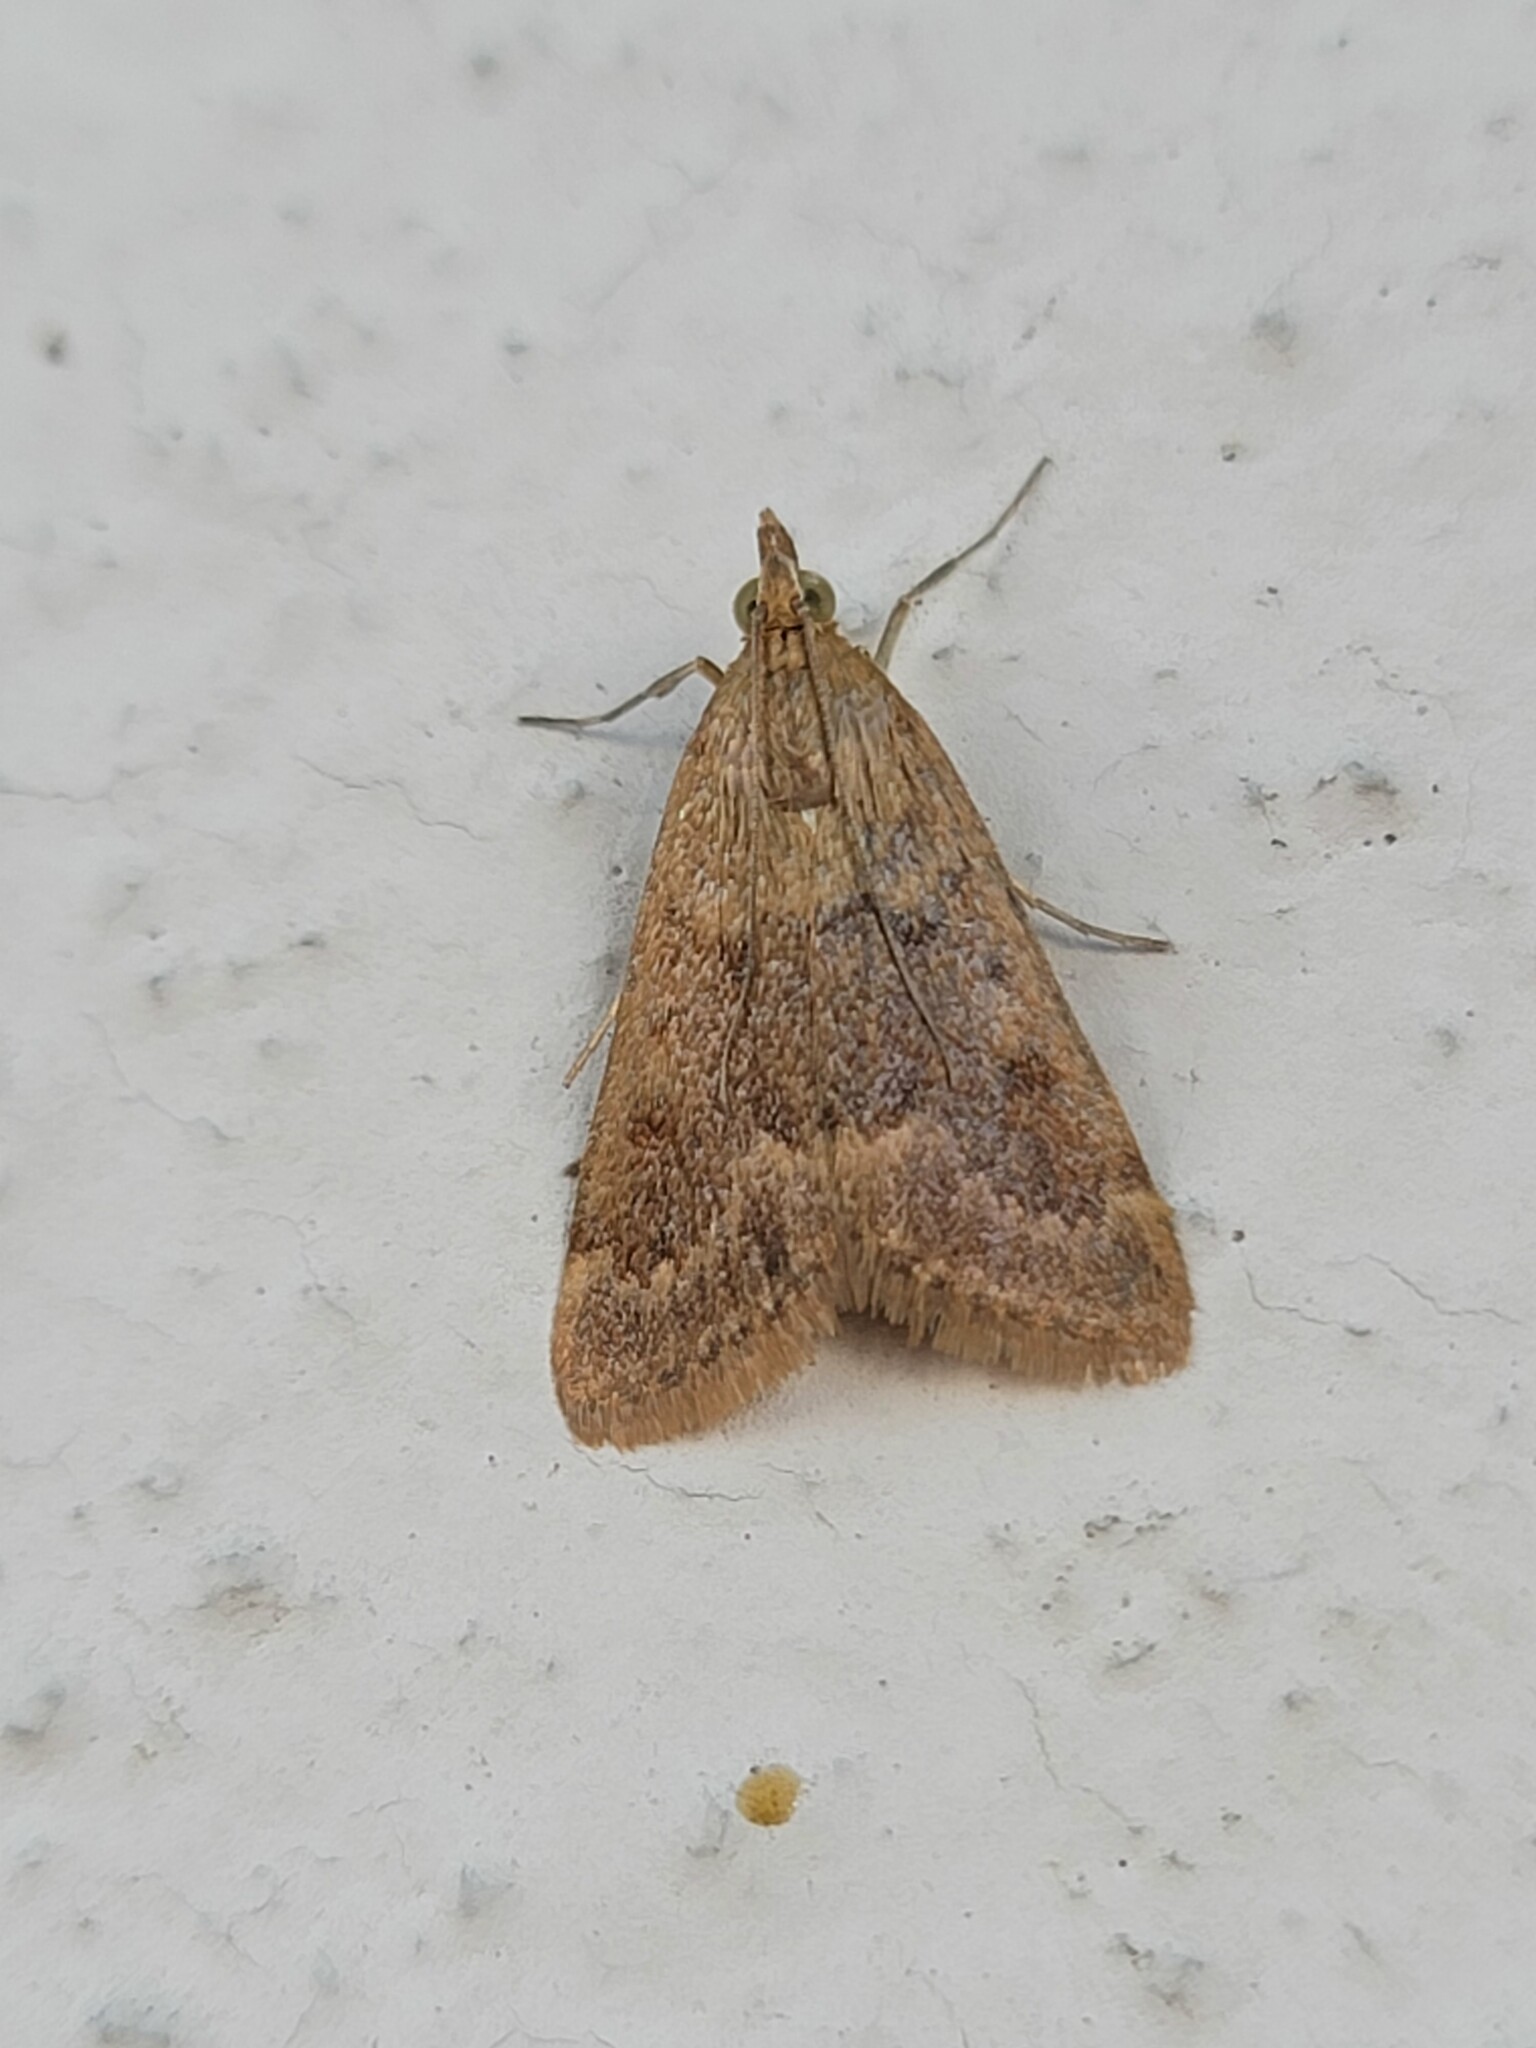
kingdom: Animalia
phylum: Arthropoda
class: Insecta
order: Lepidoptera
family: Crambidae
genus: Achyra
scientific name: Achyra rantalis
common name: Garden webworm
